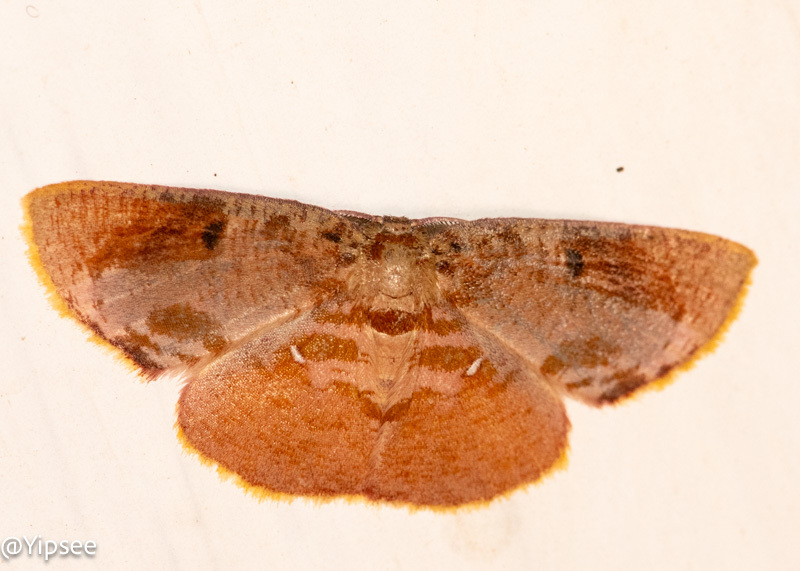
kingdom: Animalia
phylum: Arthropoda
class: Insecta
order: Lepidoptera
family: Geometridae
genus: Chrysocraspeda
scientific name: Chrysocraspeda plumbeofusa
